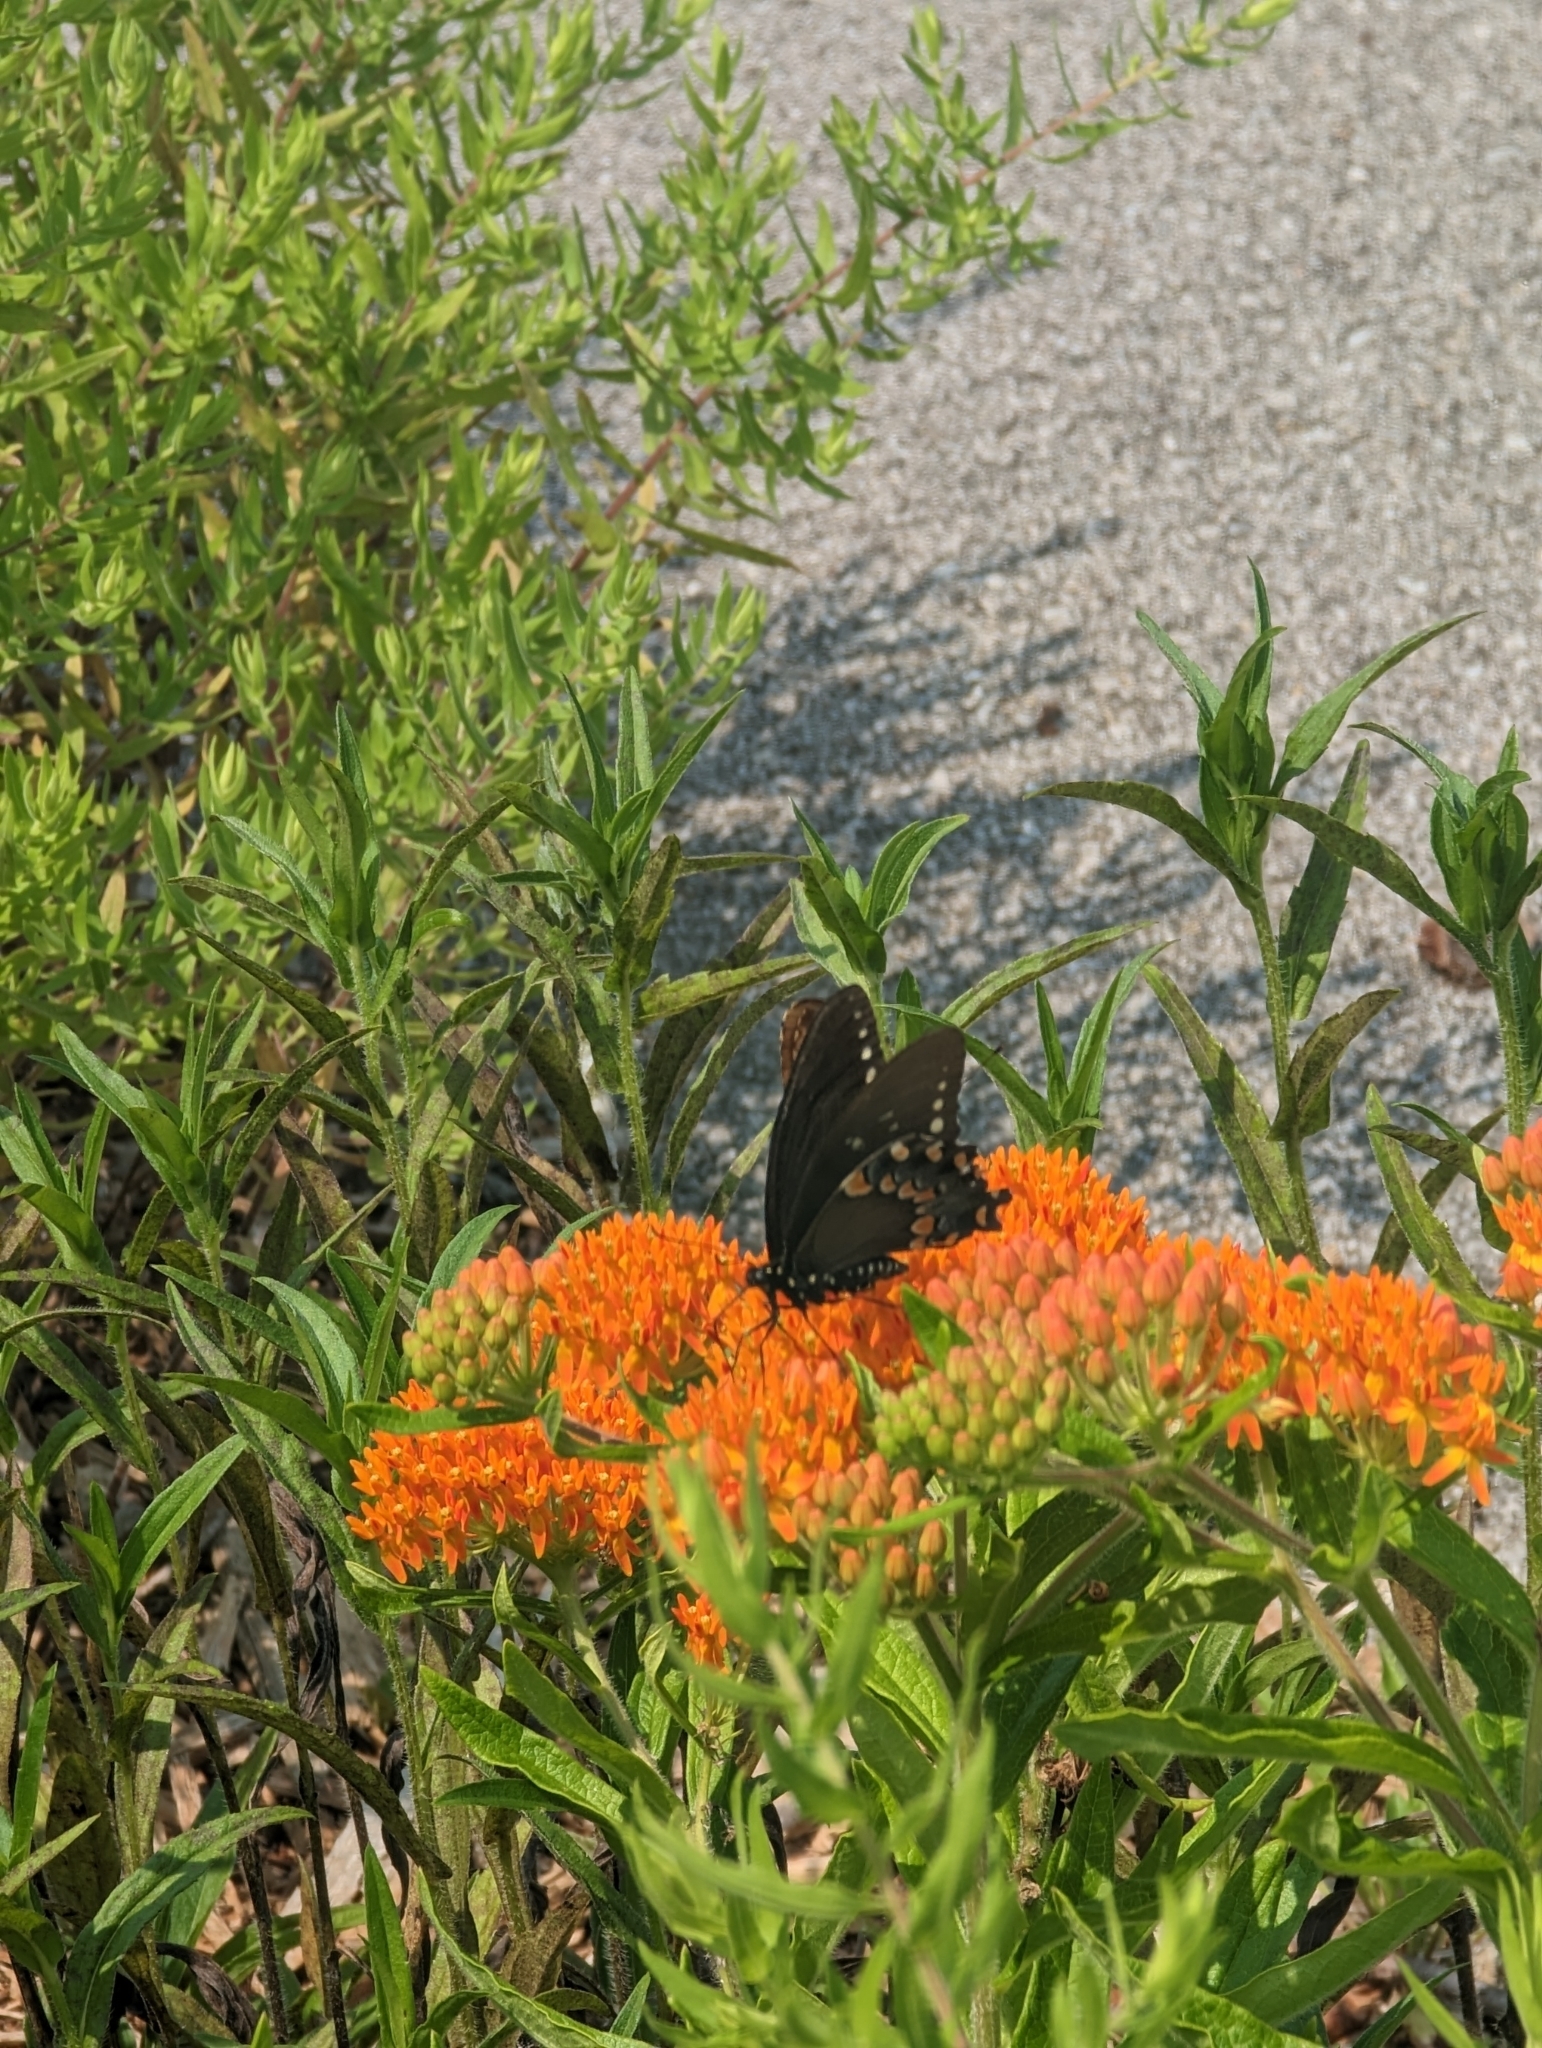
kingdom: Animalia
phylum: Arthropoda
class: Insecta
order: Lepidoptera
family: Papilionidae
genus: Papilio
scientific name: Papilio troilus
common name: Spicebush swallowtail
